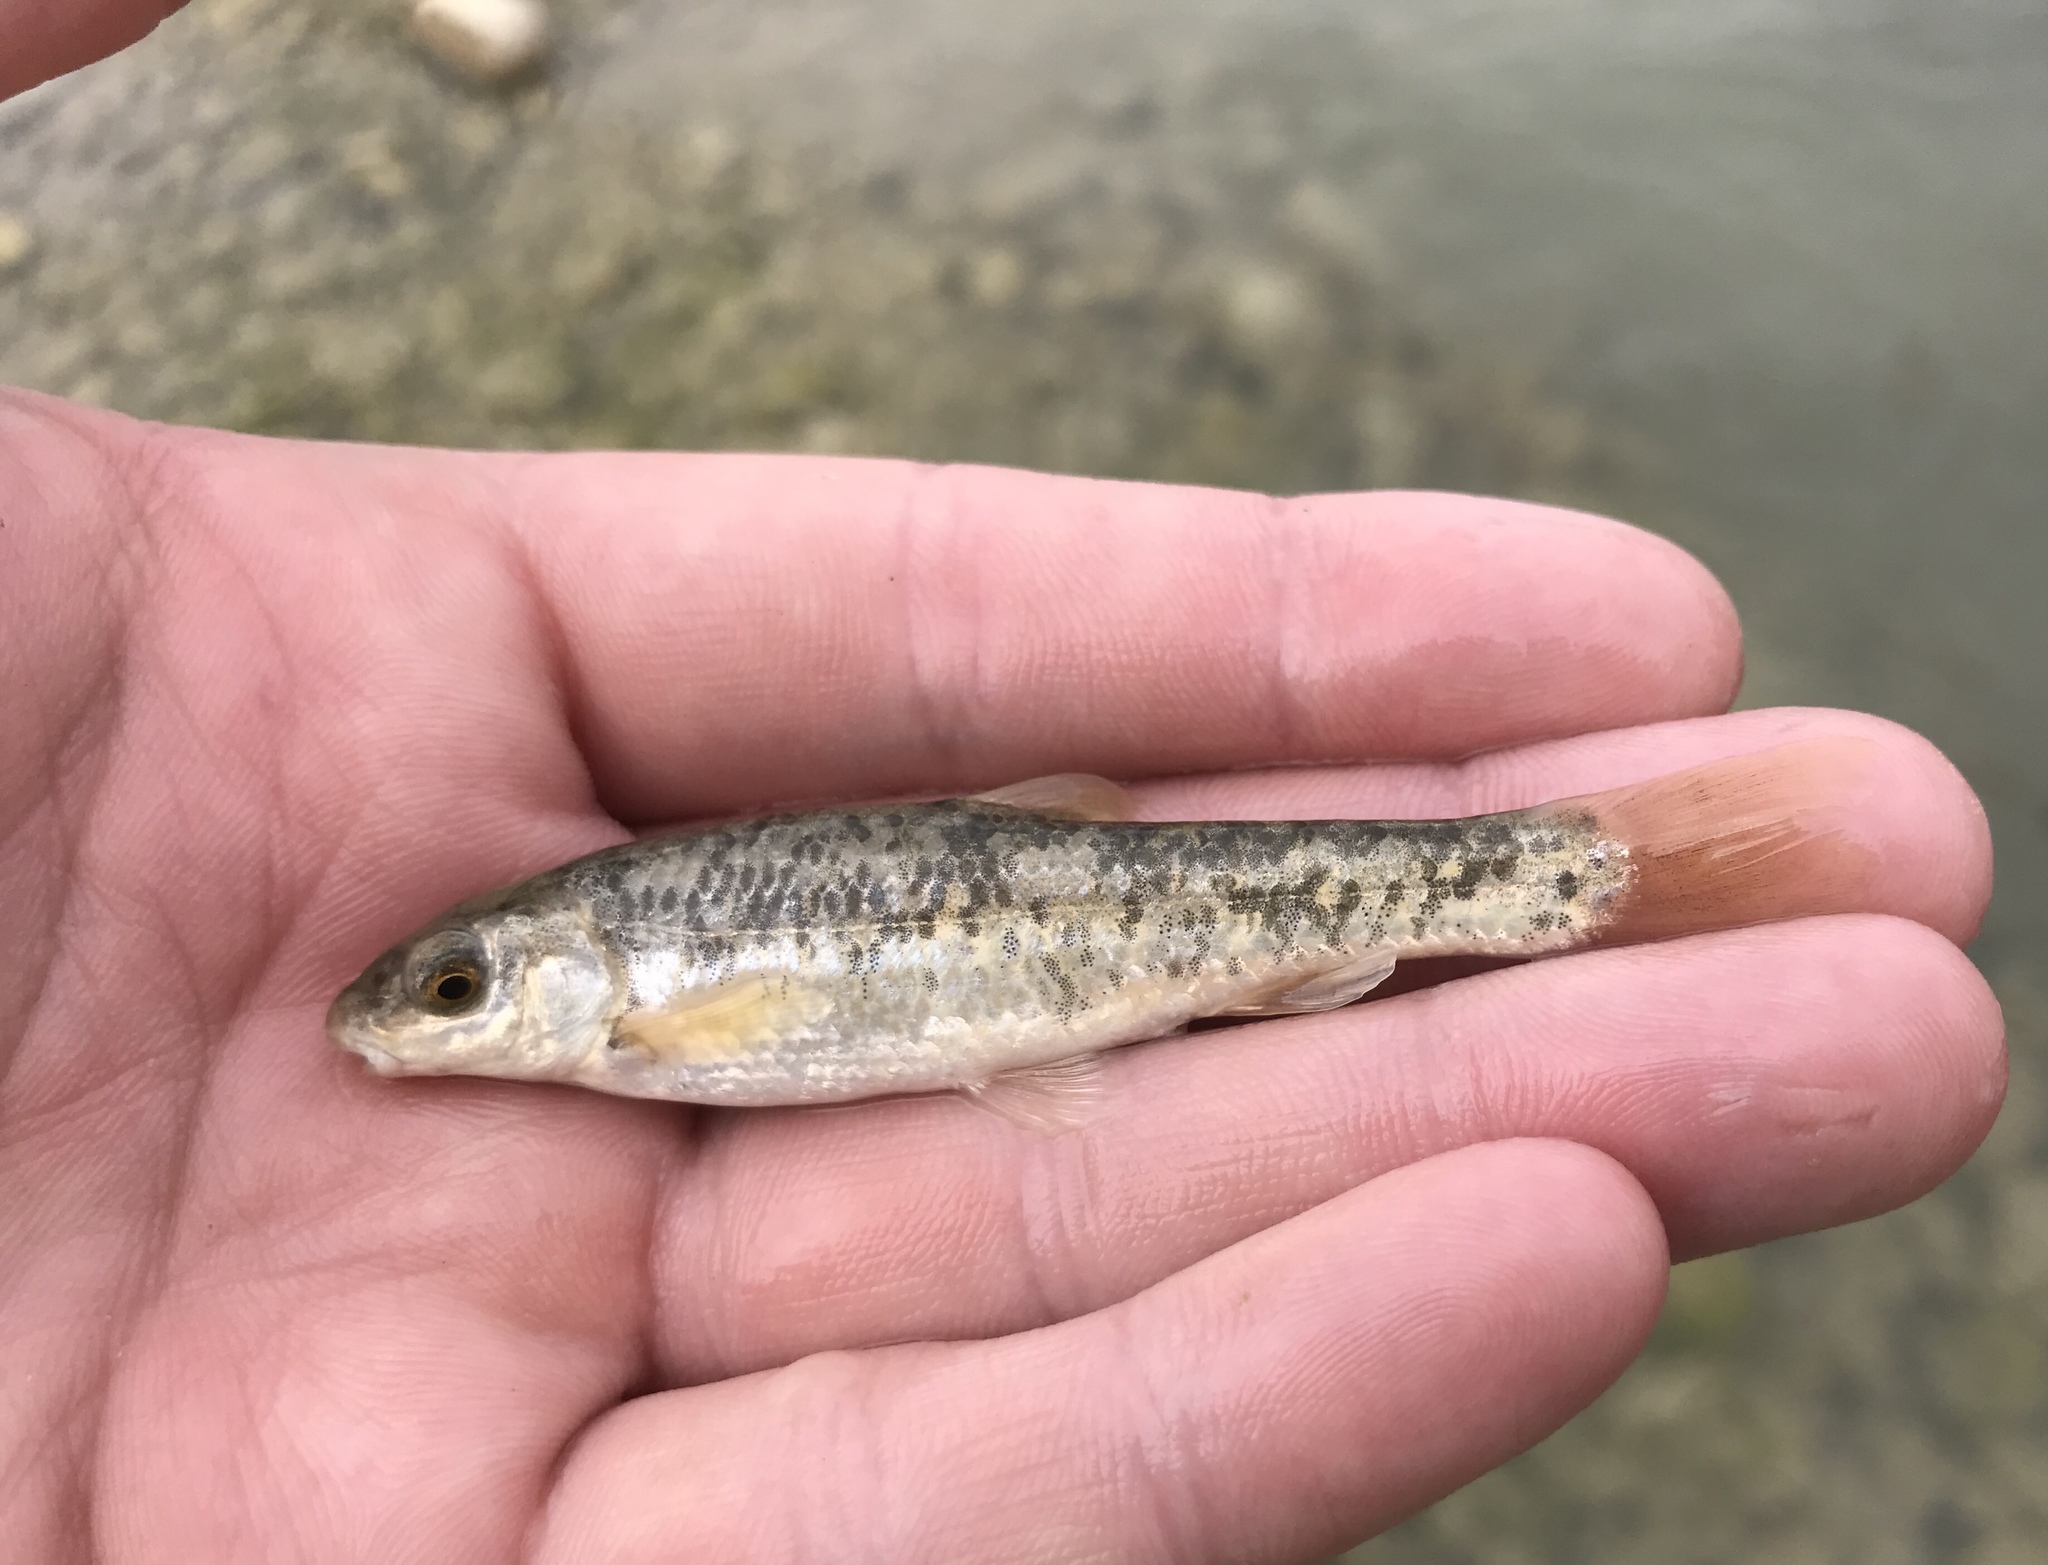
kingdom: Animalia
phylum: Chordata
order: Cypriniformes
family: Cyprinidae
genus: Campostoma
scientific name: Campostoma anomalum
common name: Central stoneroller
